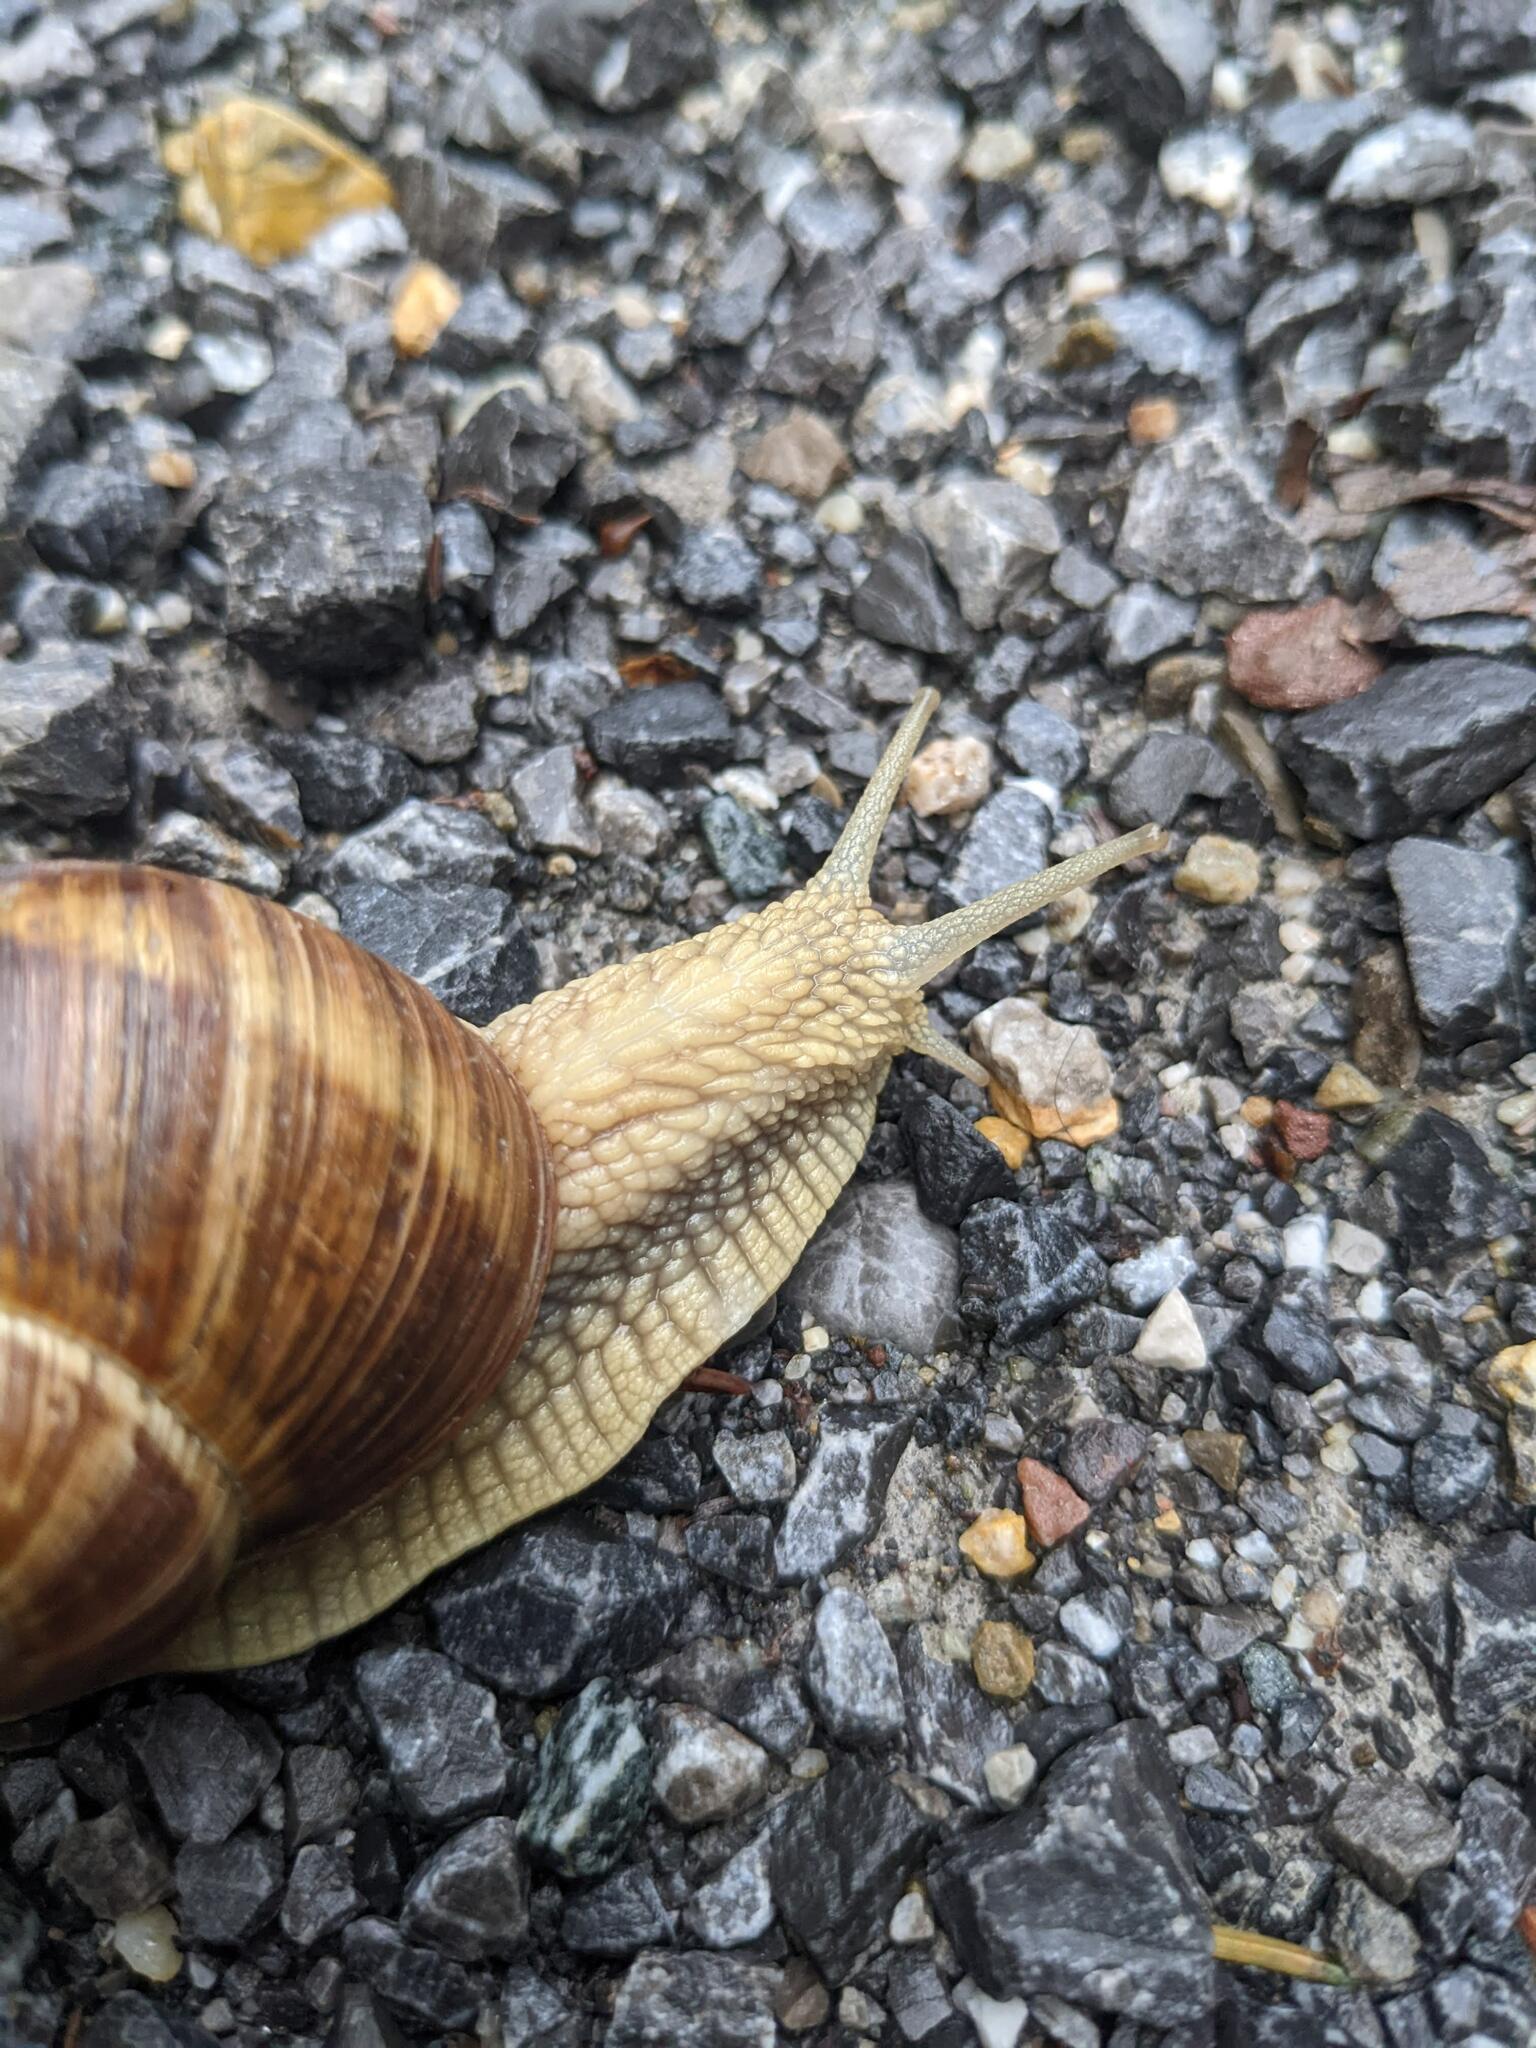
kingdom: Animalia
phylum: Mollusca
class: Gastropoda
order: Stylommatophora
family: Helicidae
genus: Helix
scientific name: Helix pomatia
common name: Roman snail
